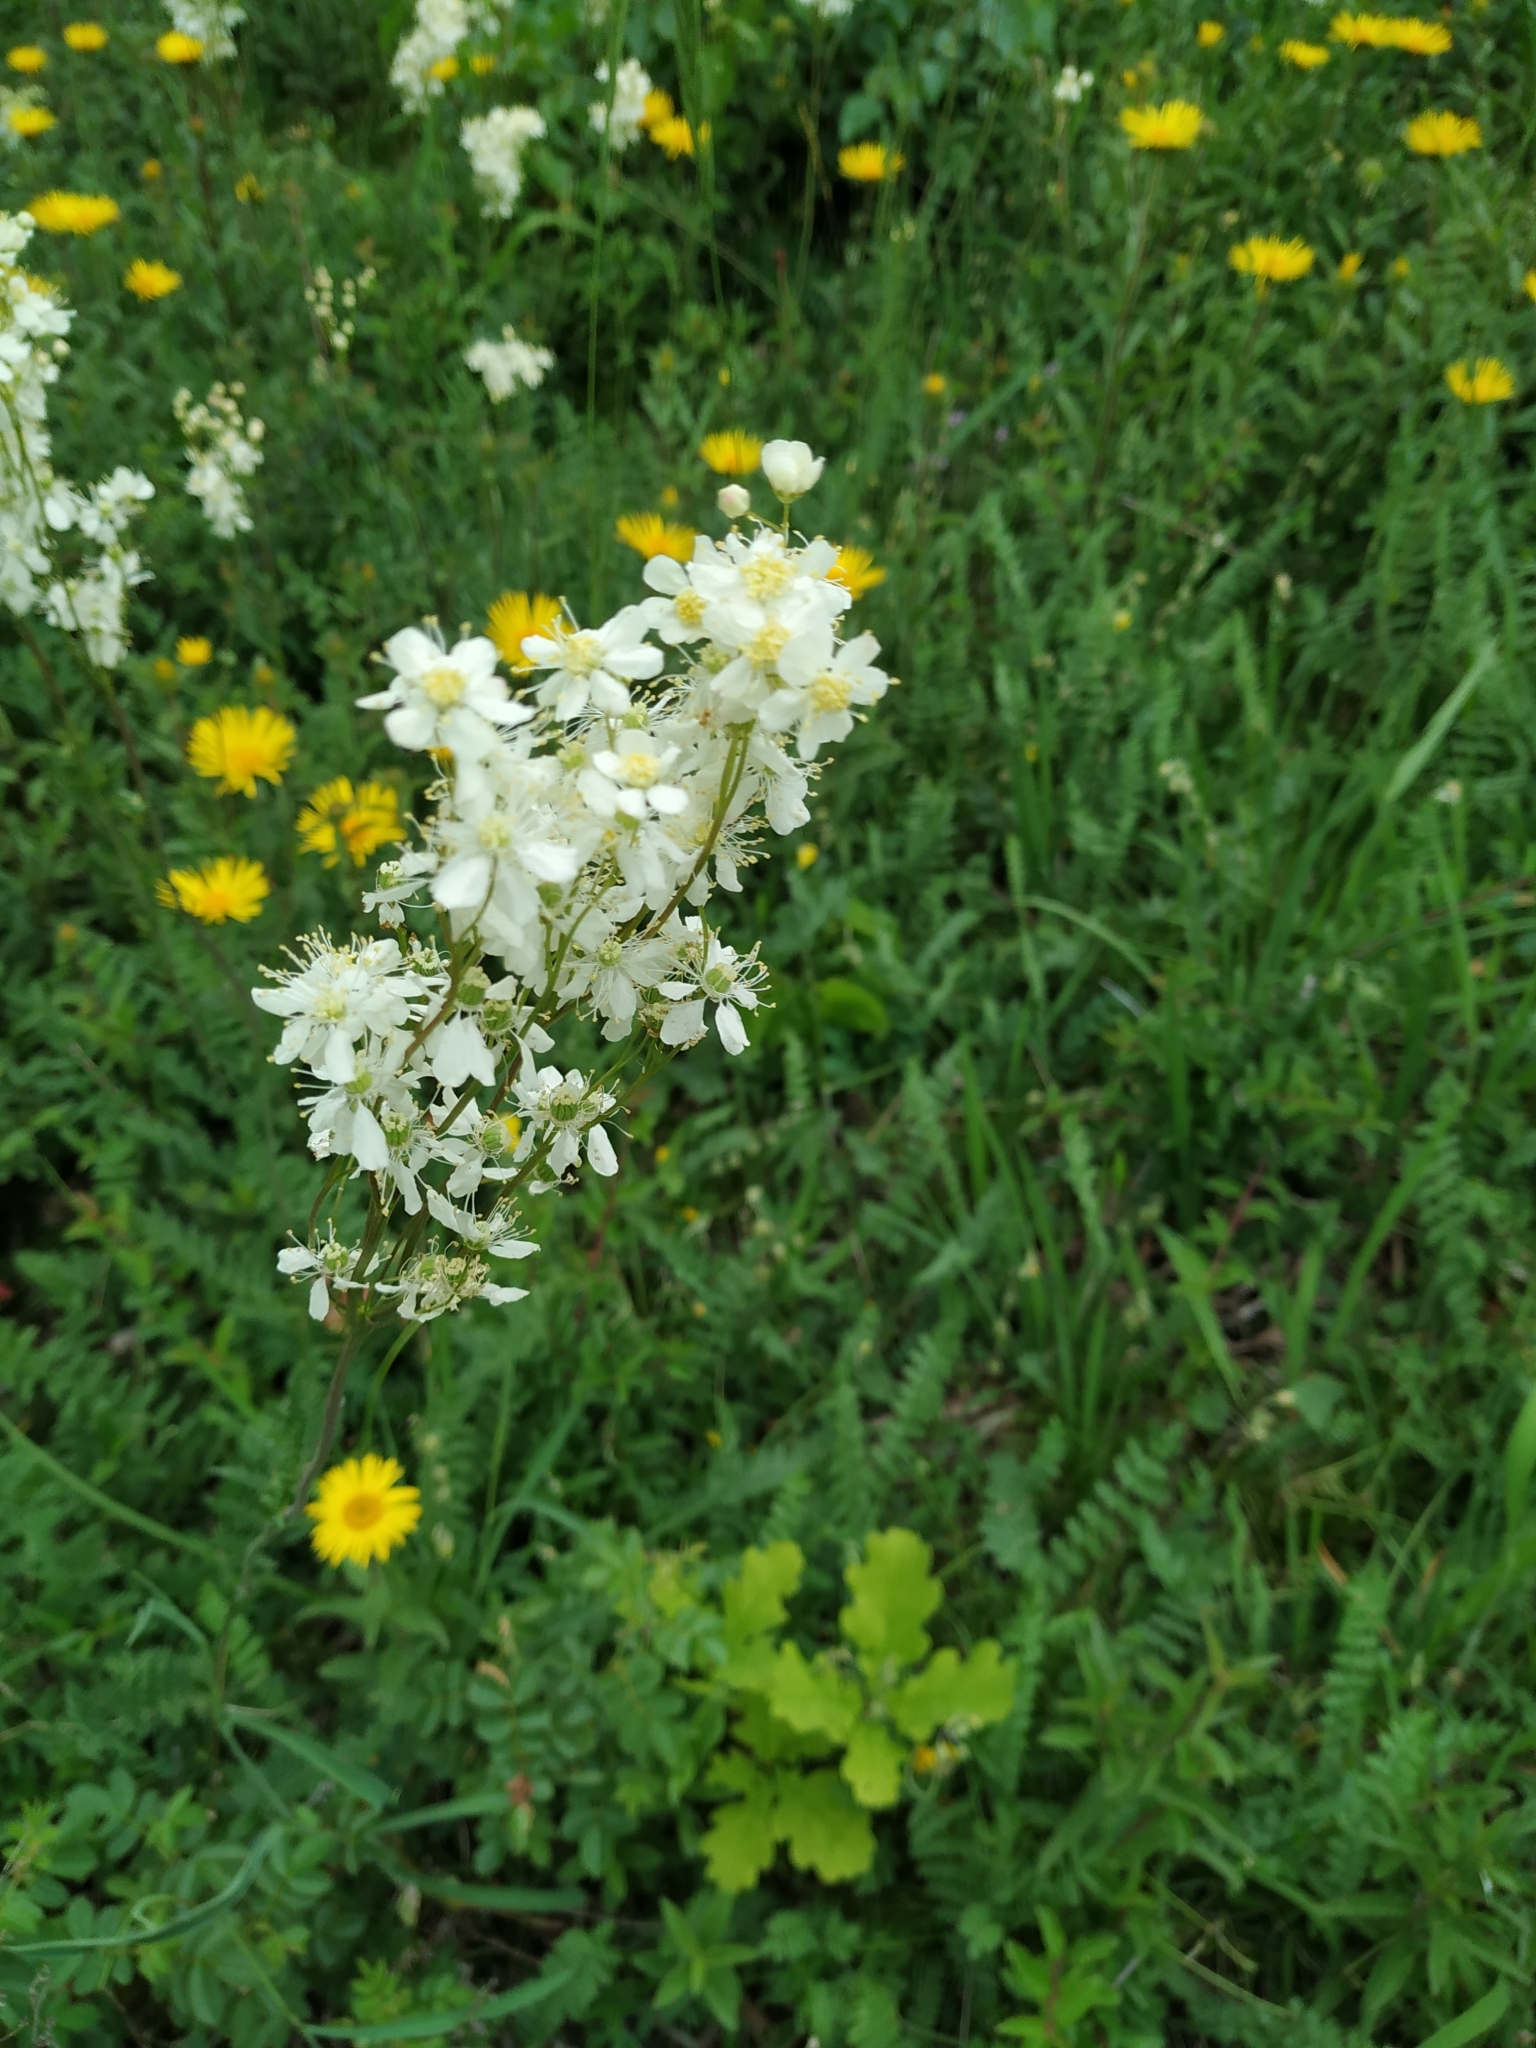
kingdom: Plantae
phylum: Tracheophyta
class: Magnoliopsida
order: Rosales
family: Rosaceae
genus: Filipendula
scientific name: Filipendula vulgaris
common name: Dropwort
